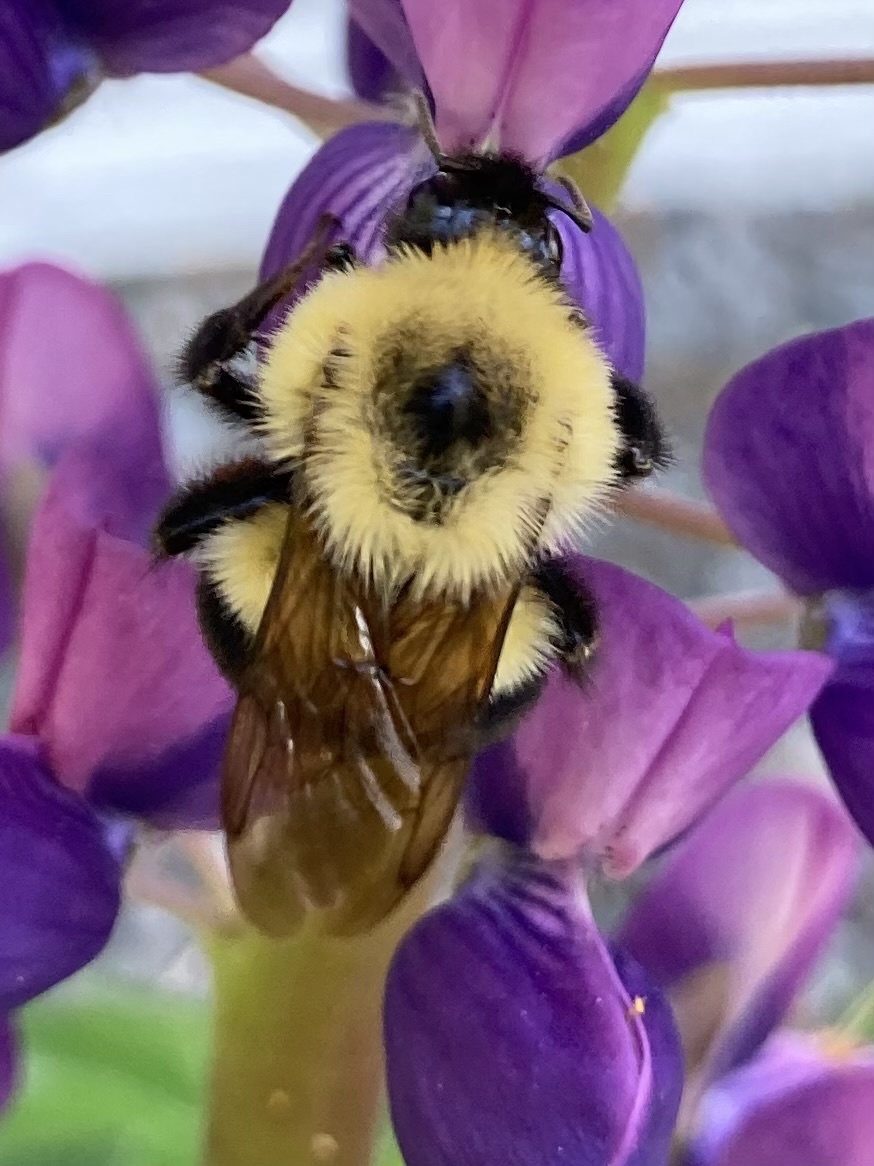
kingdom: Animalia
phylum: Arthropoda
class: Insecta
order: Hymenoptera
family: Apidae
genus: Bombus
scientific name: Bombus bimaculatus
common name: Two-spotted bumble bee
